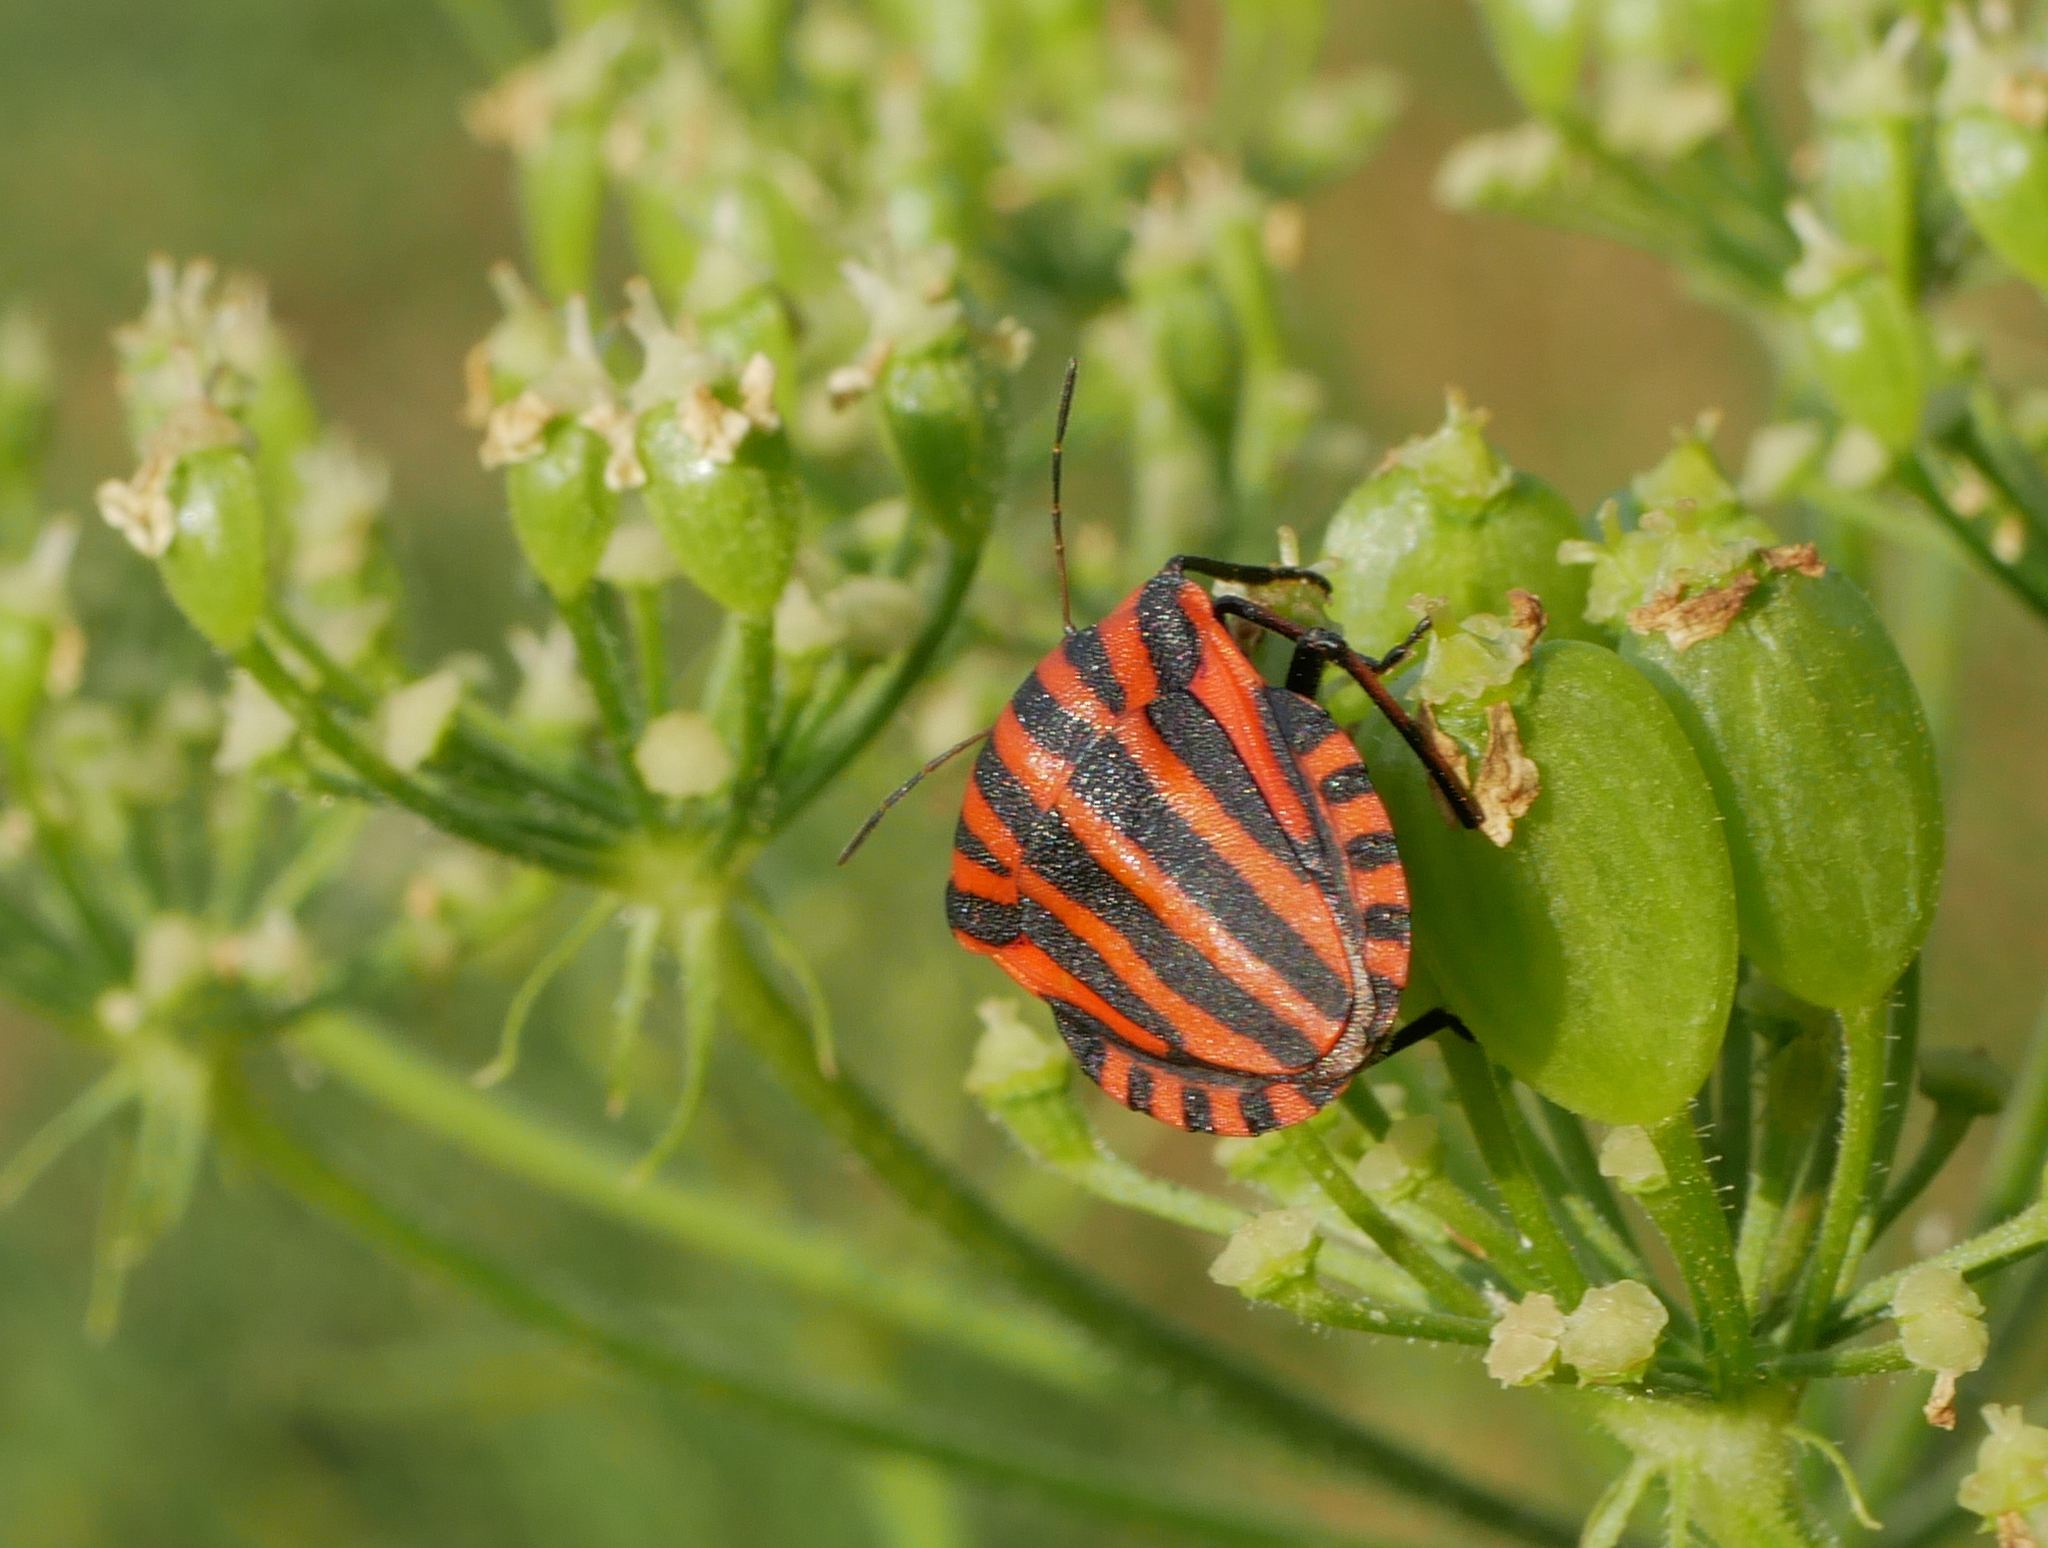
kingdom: Animalia
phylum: Arthropoda
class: Insecta
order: Hemiptera
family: Pentatomidae
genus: Graphosoma
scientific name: Graphosoma italicum
